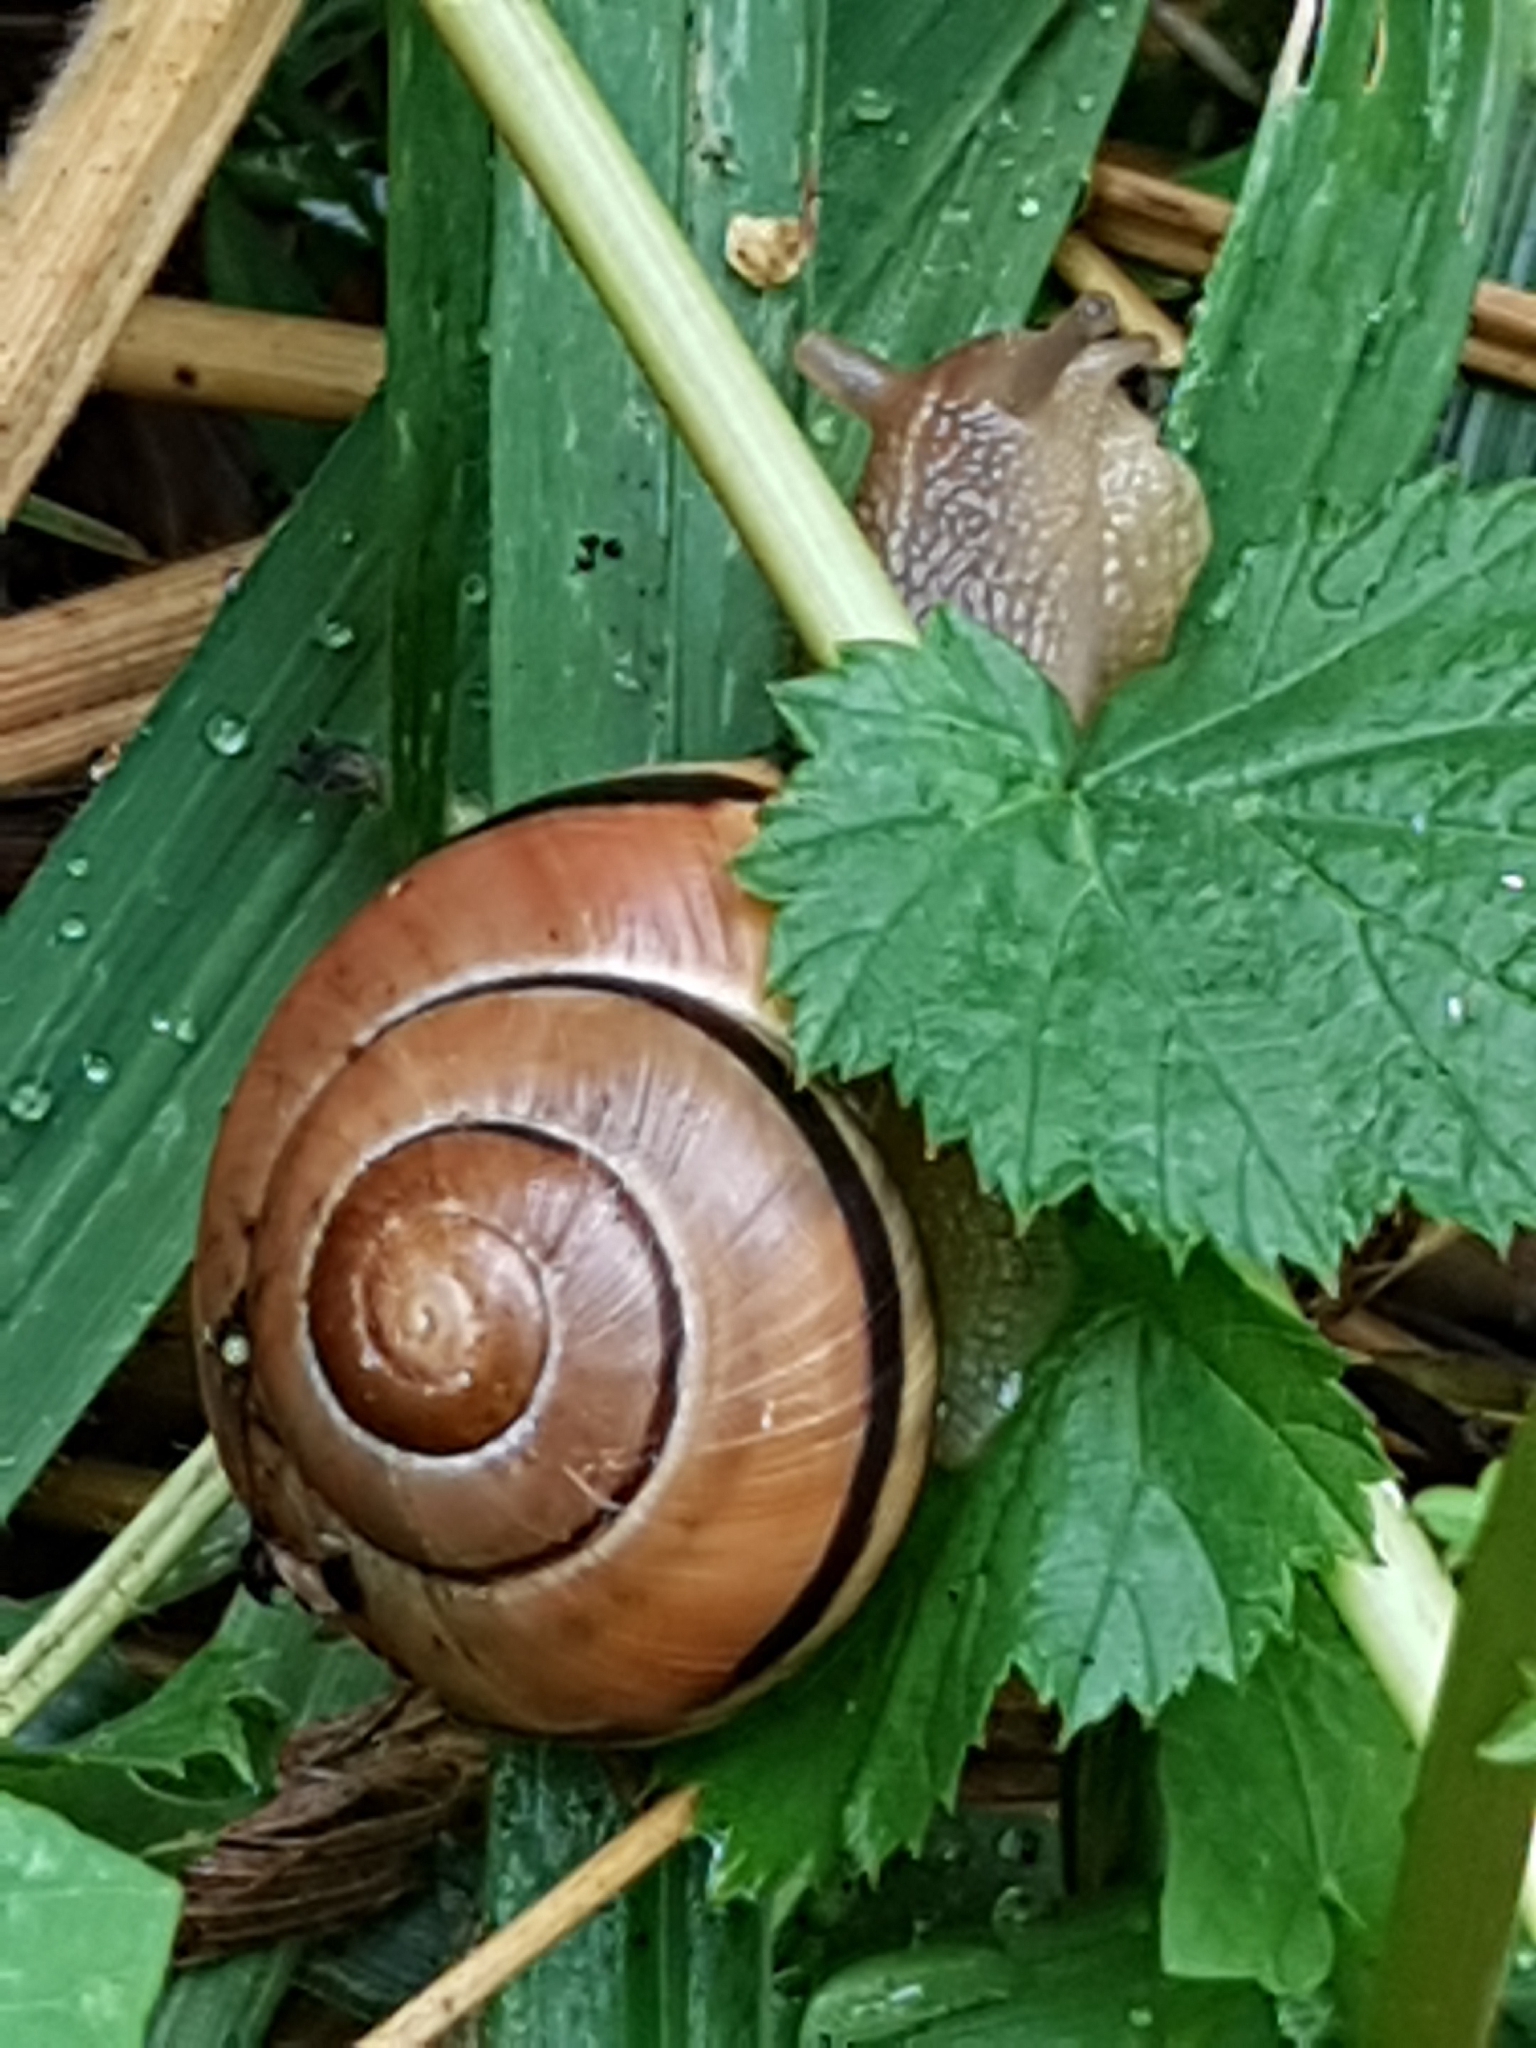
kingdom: Animalia
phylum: Mollusca
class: Gastropoda
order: Stylommatophora
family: Helicidae
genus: Cepaea
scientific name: Cepaea nemoralis
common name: Grovesnail
